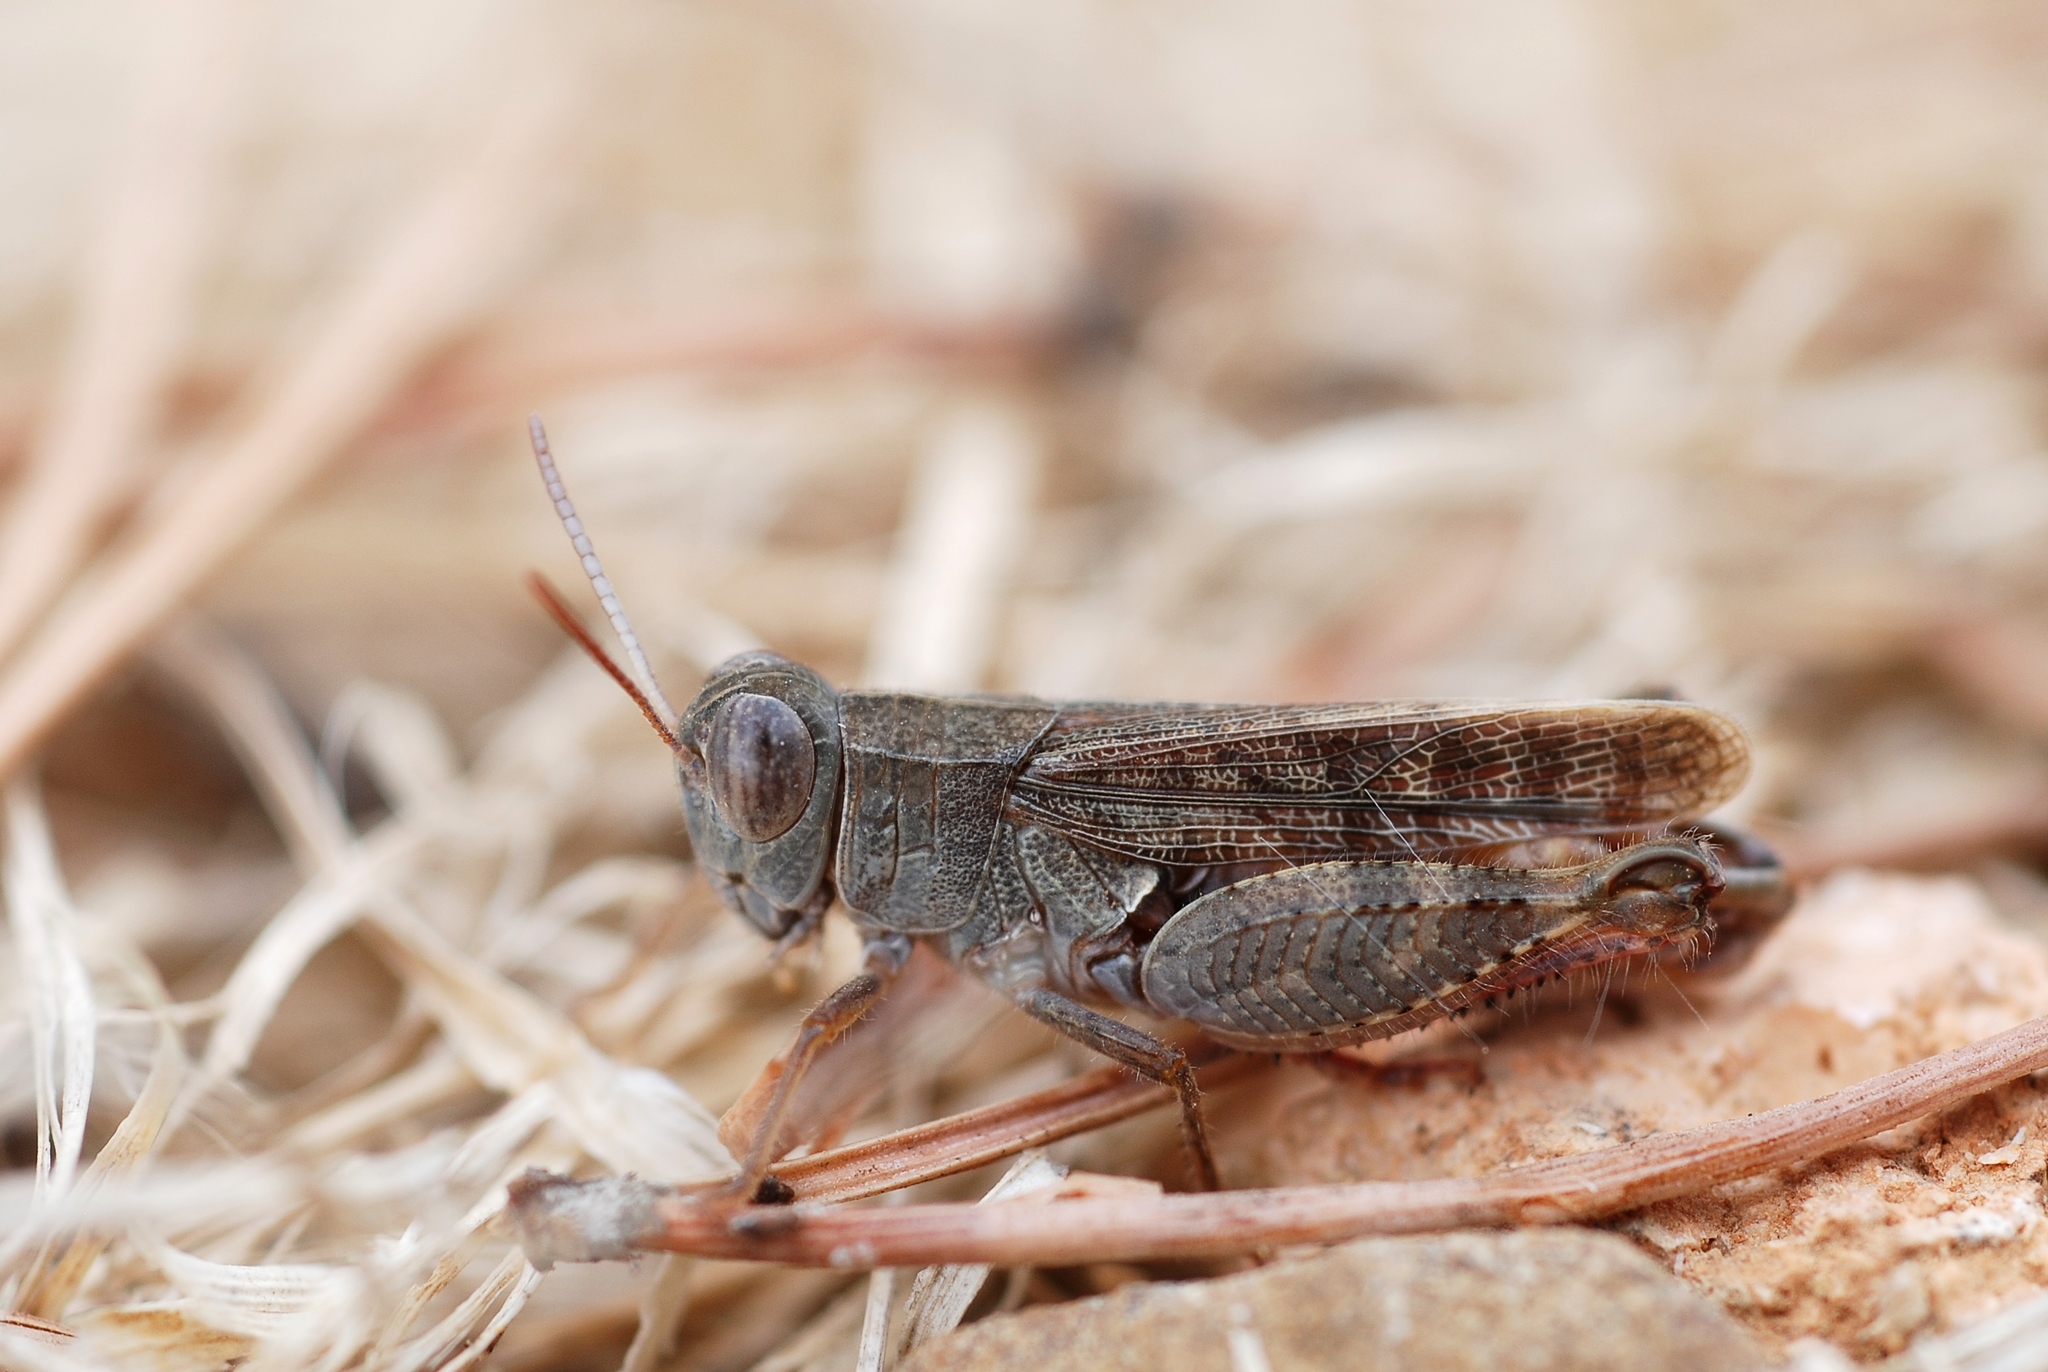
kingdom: Animalia
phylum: Arthropoda
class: Insecta
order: Orthoptera
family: Acrididae
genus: Calliptamus
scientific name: Calliptamus barbarus
